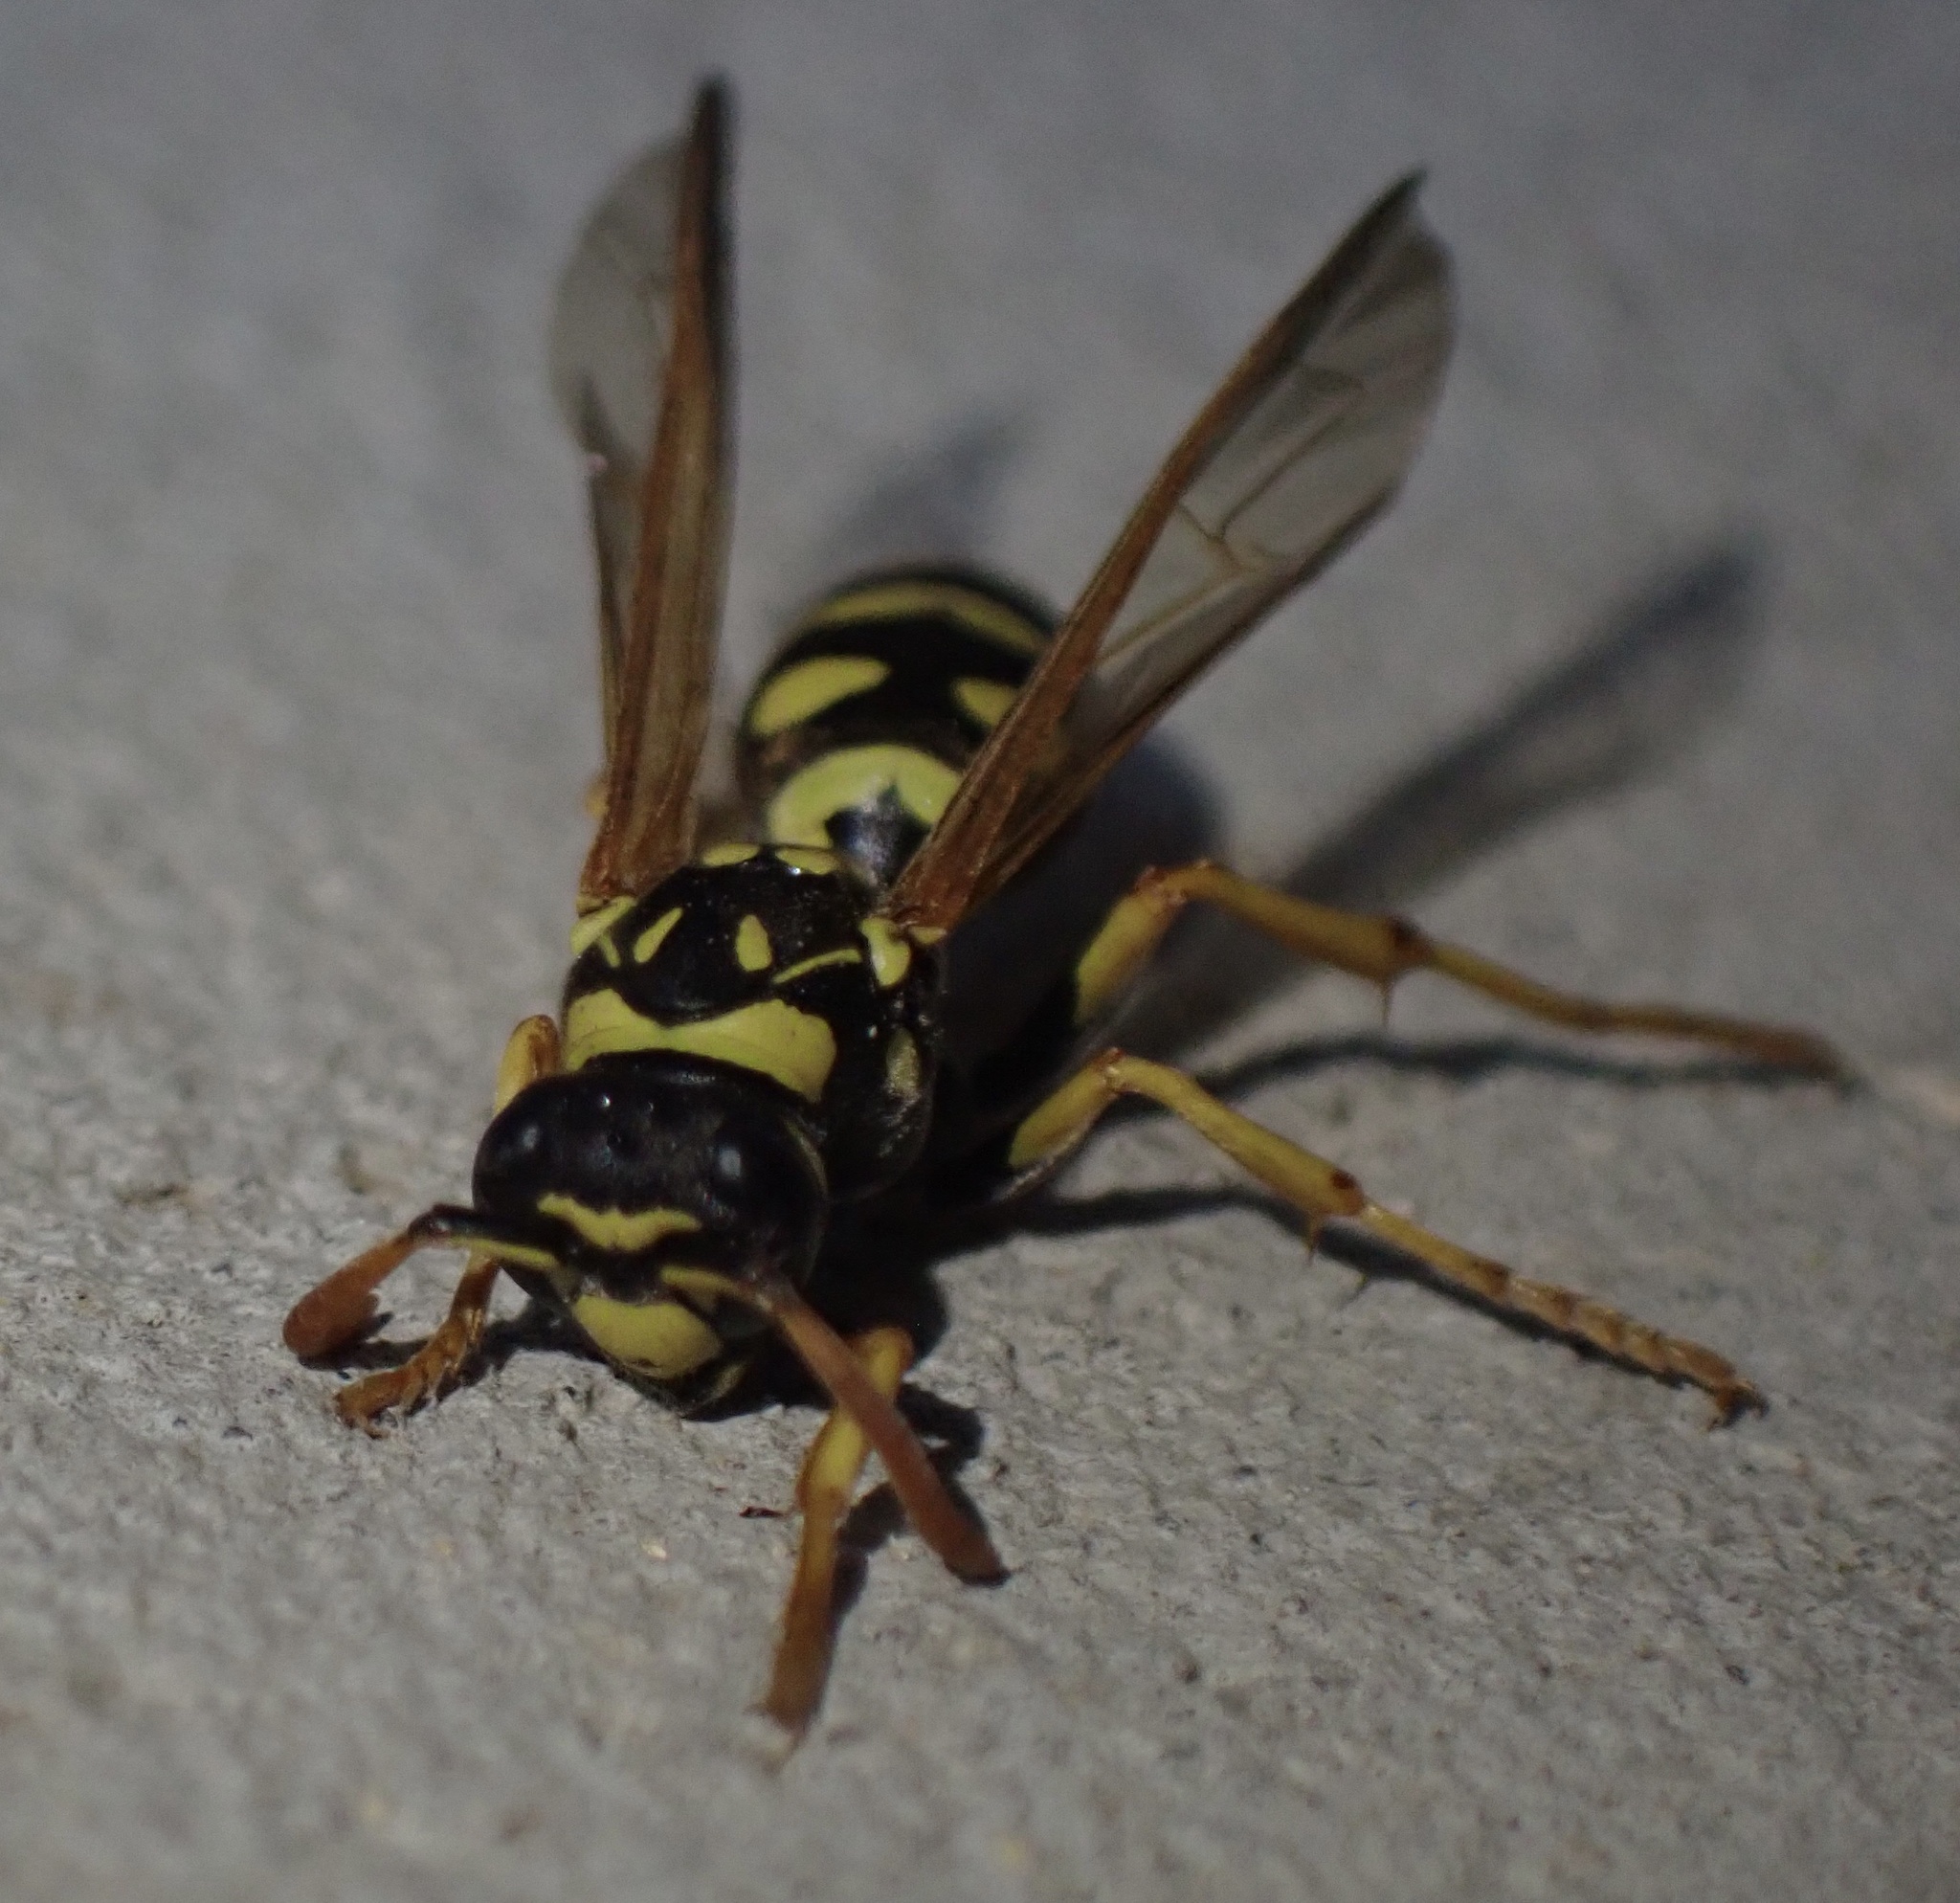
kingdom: Animalia
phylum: Arthropoda
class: Insecta
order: Hymenoptera
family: Eumenidae
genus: Polistes
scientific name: Polistes gallicus
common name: Paper wasp
